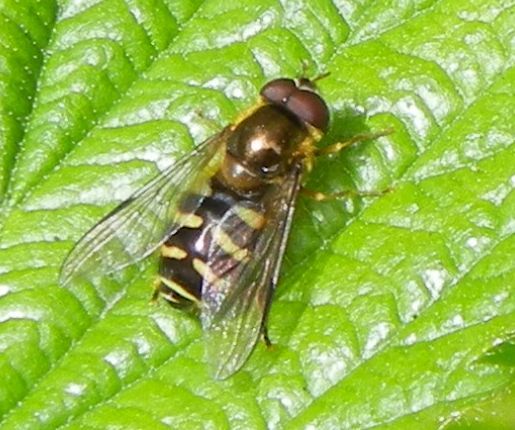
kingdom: Animalia
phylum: Arthropoda
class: Insecta
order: Diptera
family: Syrphidae
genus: Dasysyrphus
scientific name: Dasysyrphus
